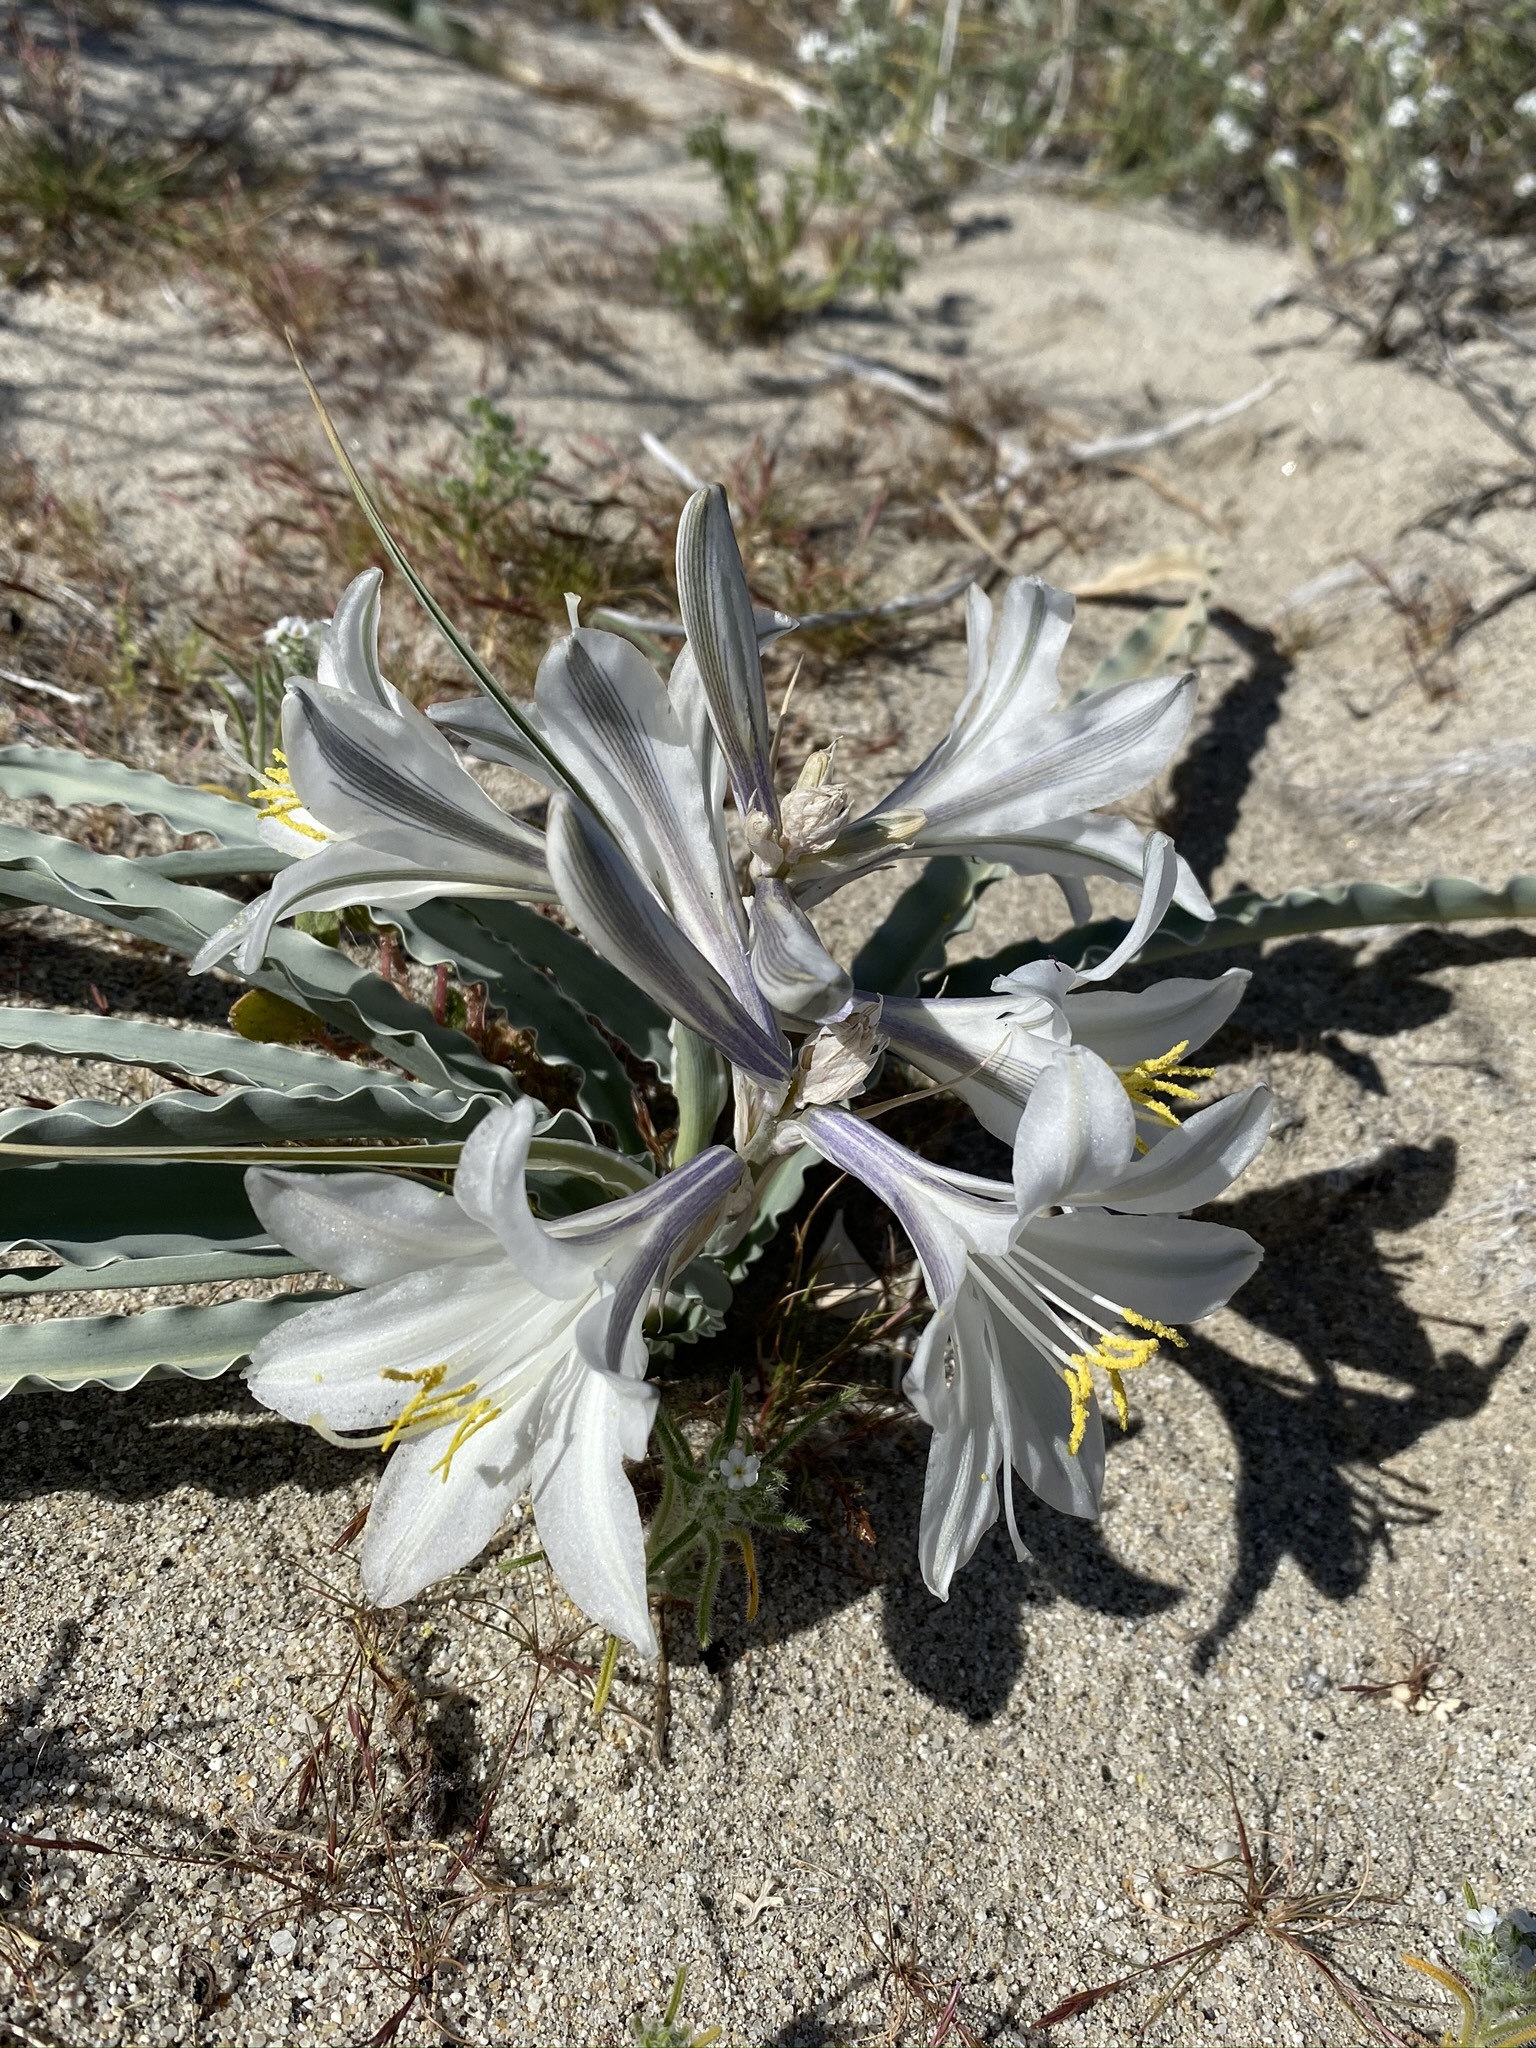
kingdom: Plantae
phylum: Tracheophyta
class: Liliopsida
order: Asparagales
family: Asparagaceae
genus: Hesperocallis
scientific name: Hesperocallis undulata
